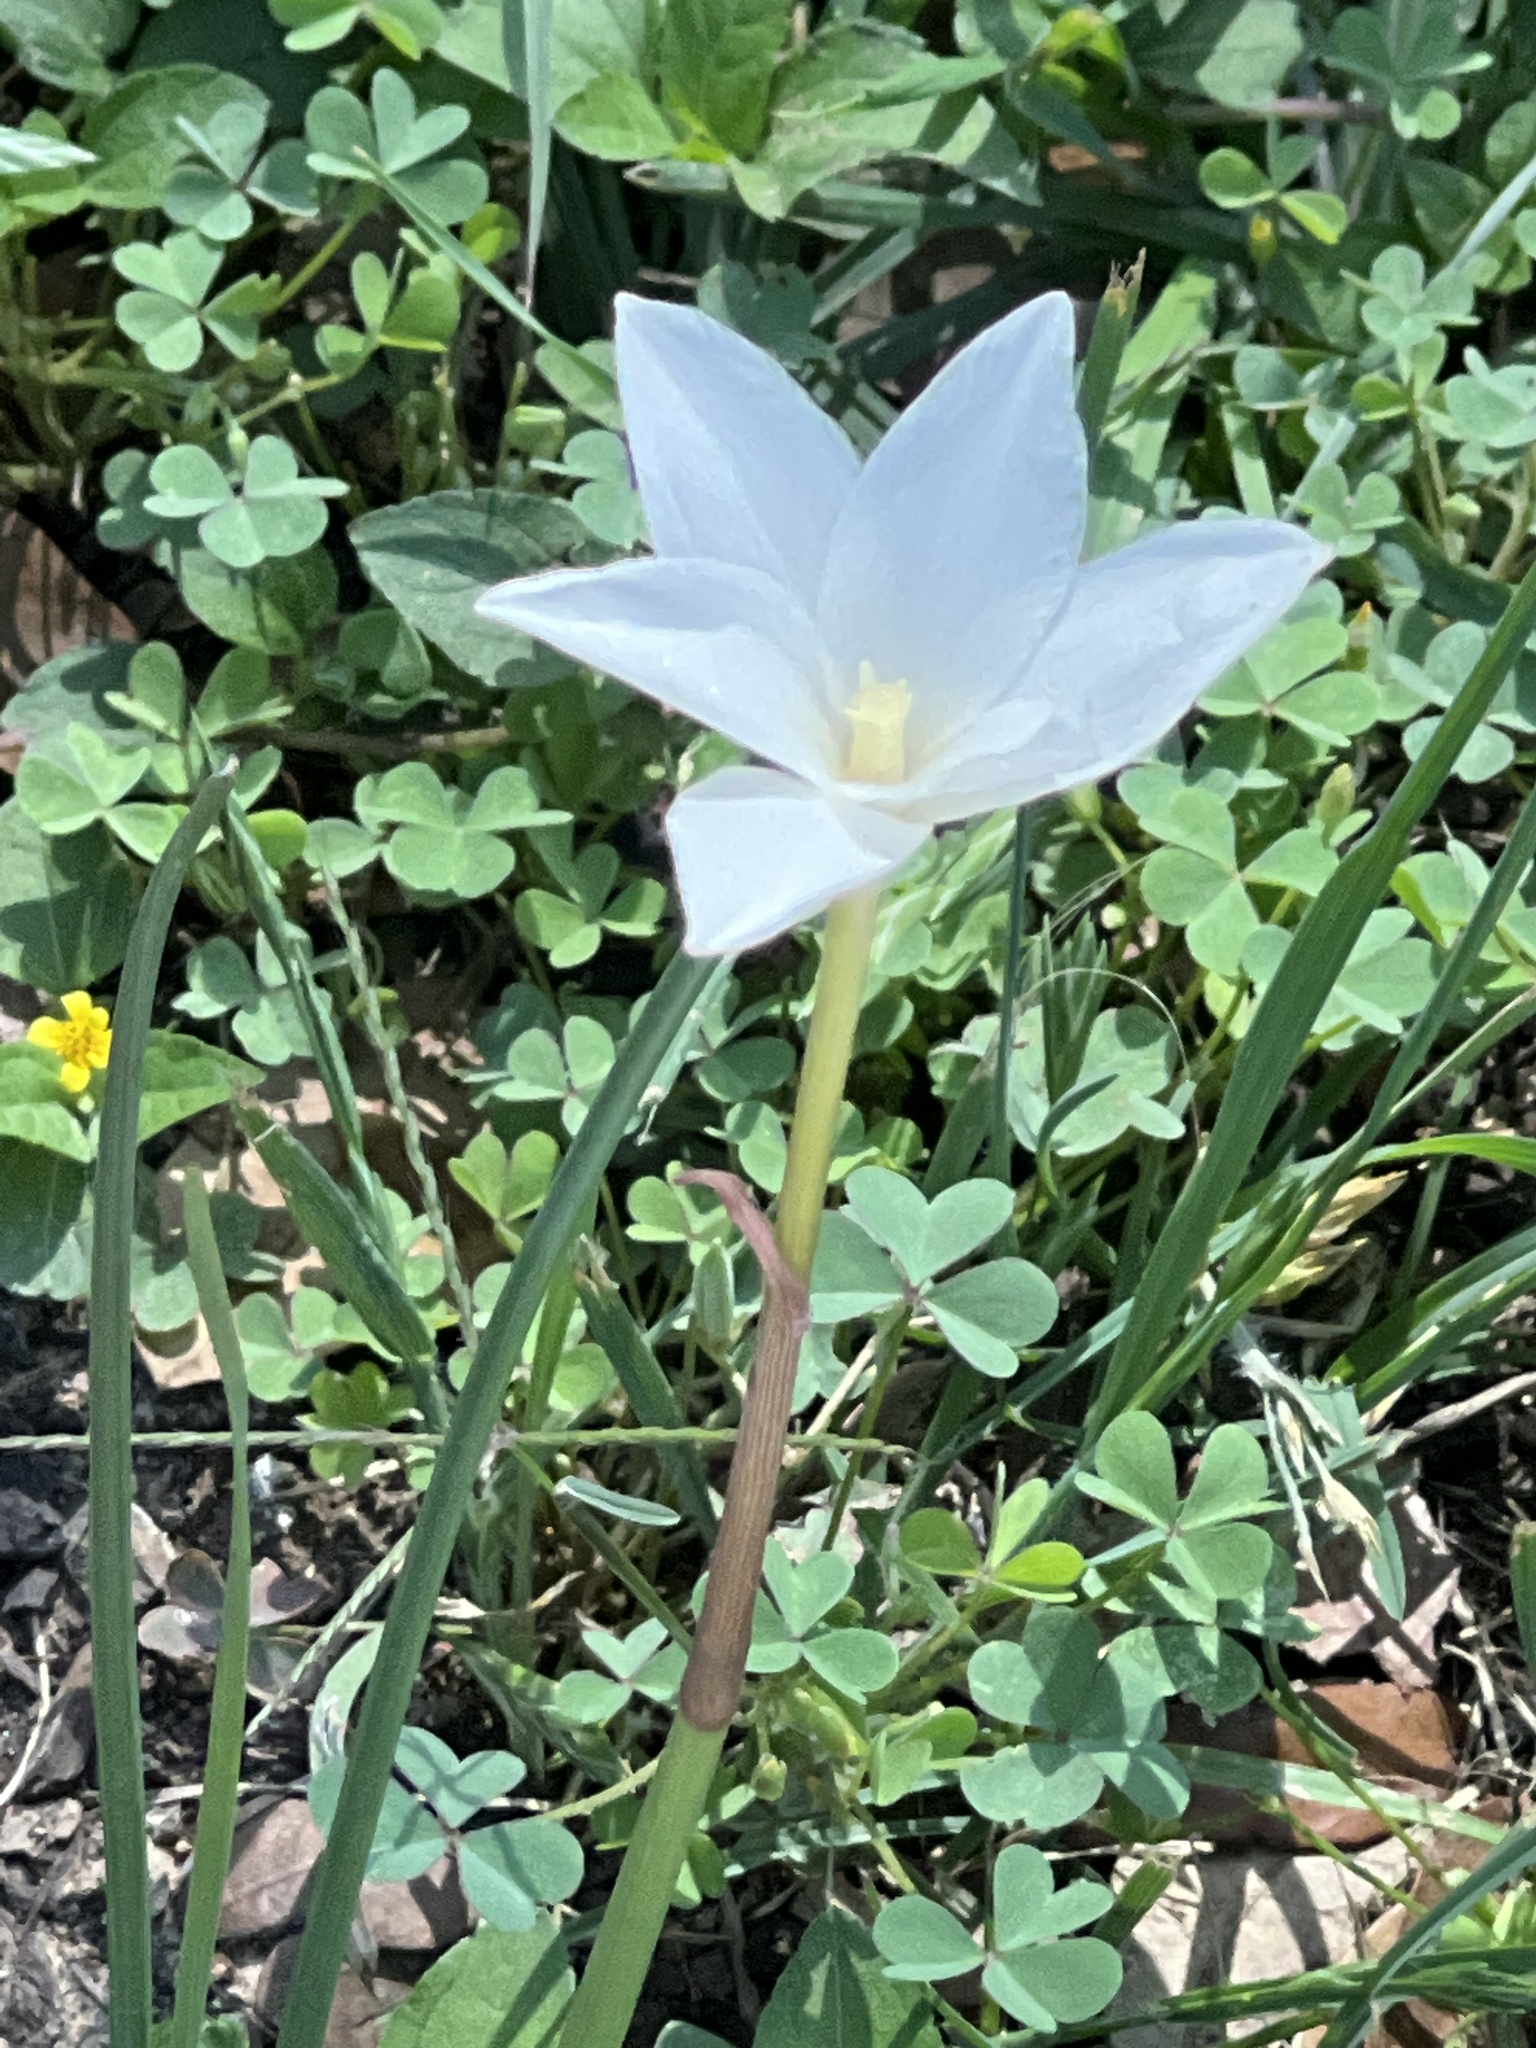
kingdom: Plantae
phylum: Tracheophyta
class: Liliopsida
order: Asparagales
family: Amaryllidaceae
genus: Zephyranthes
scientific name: Zephyranthes chlorosolen
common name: Evening rain-lily
